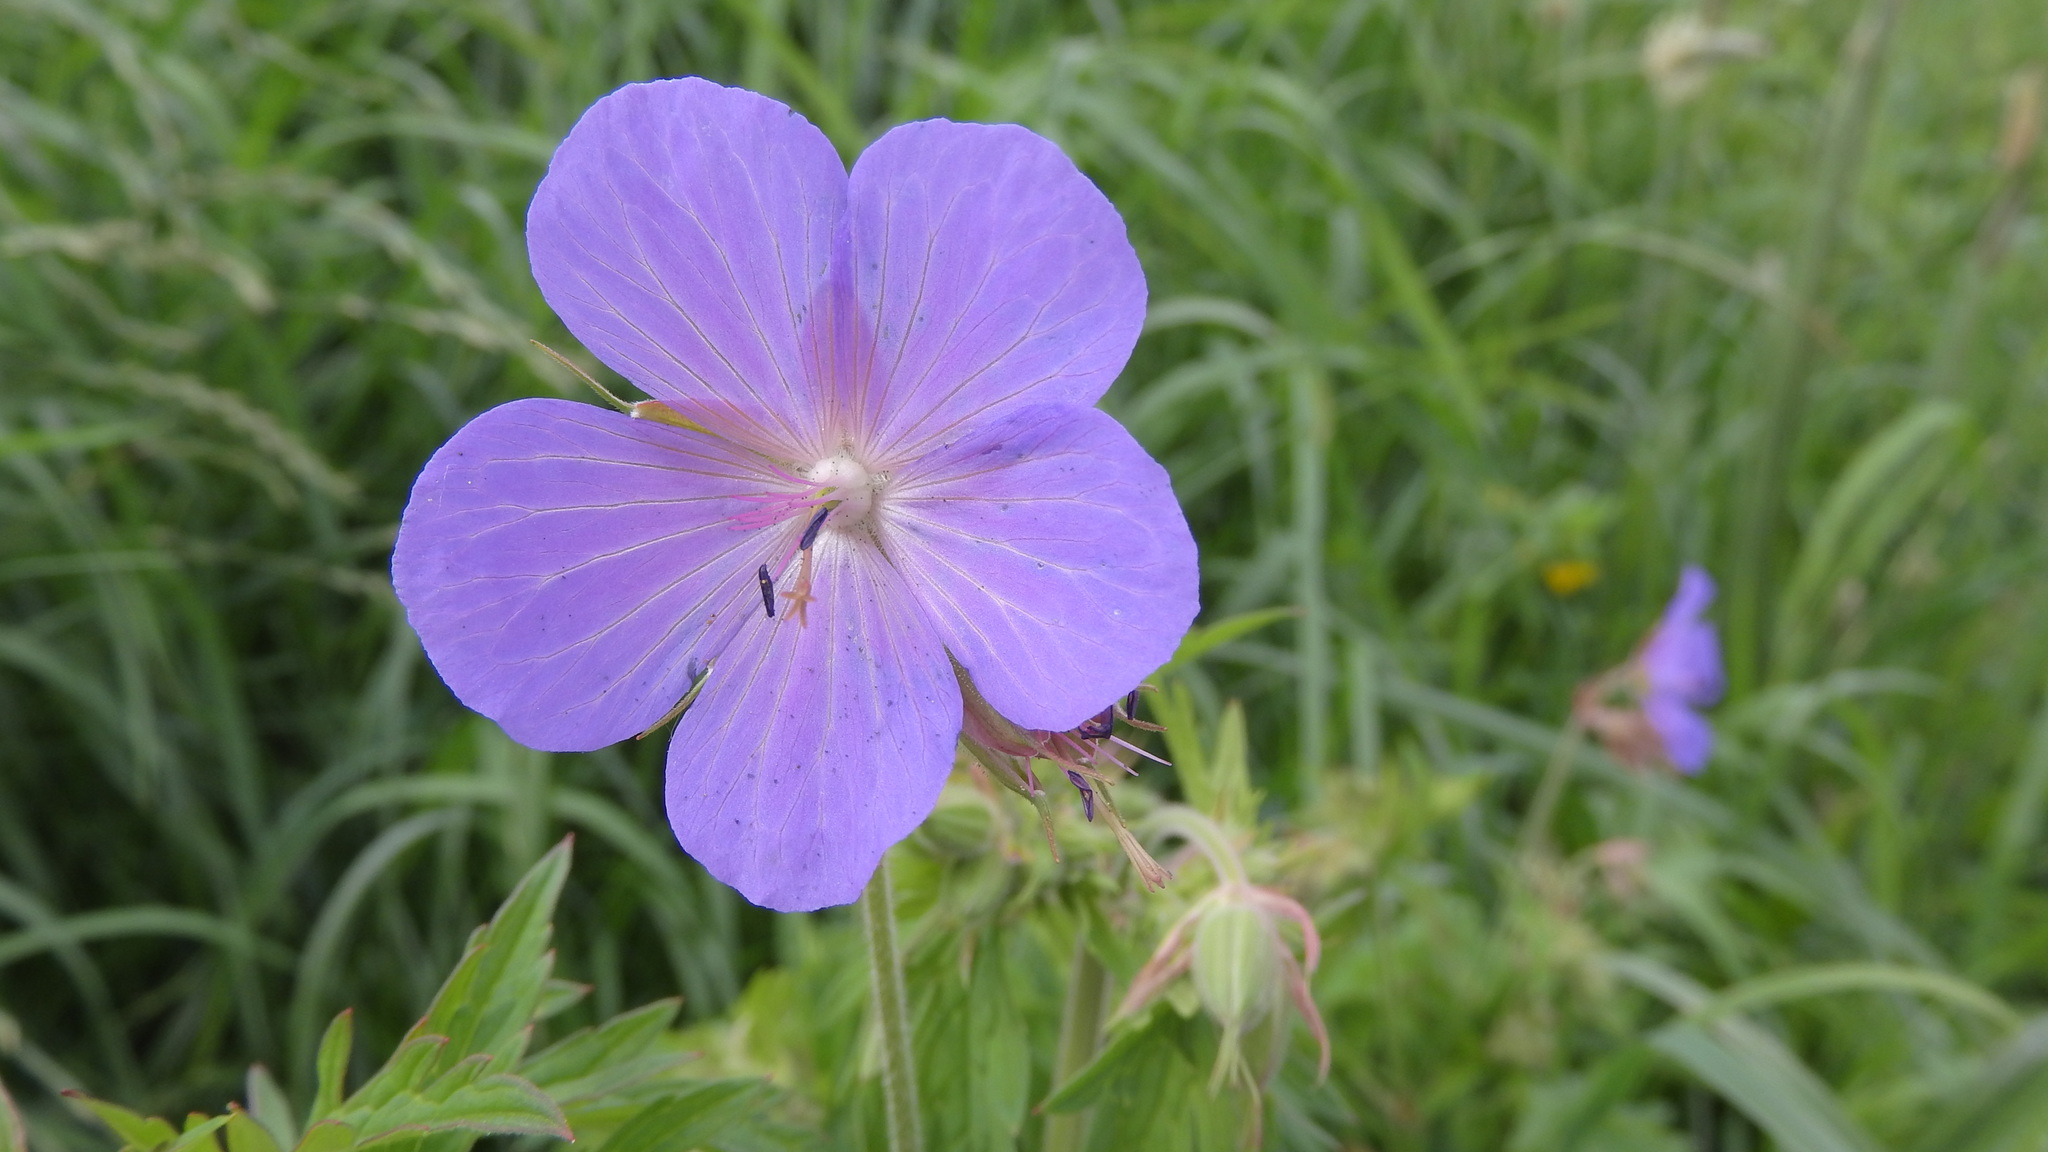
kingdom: Plantae
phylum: Tracheophyta
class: Magnoliopsida
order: Geraniales
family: Geraniaceae
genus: Geranium
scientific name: Geranium pratense
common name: Meadow crane's-bill
